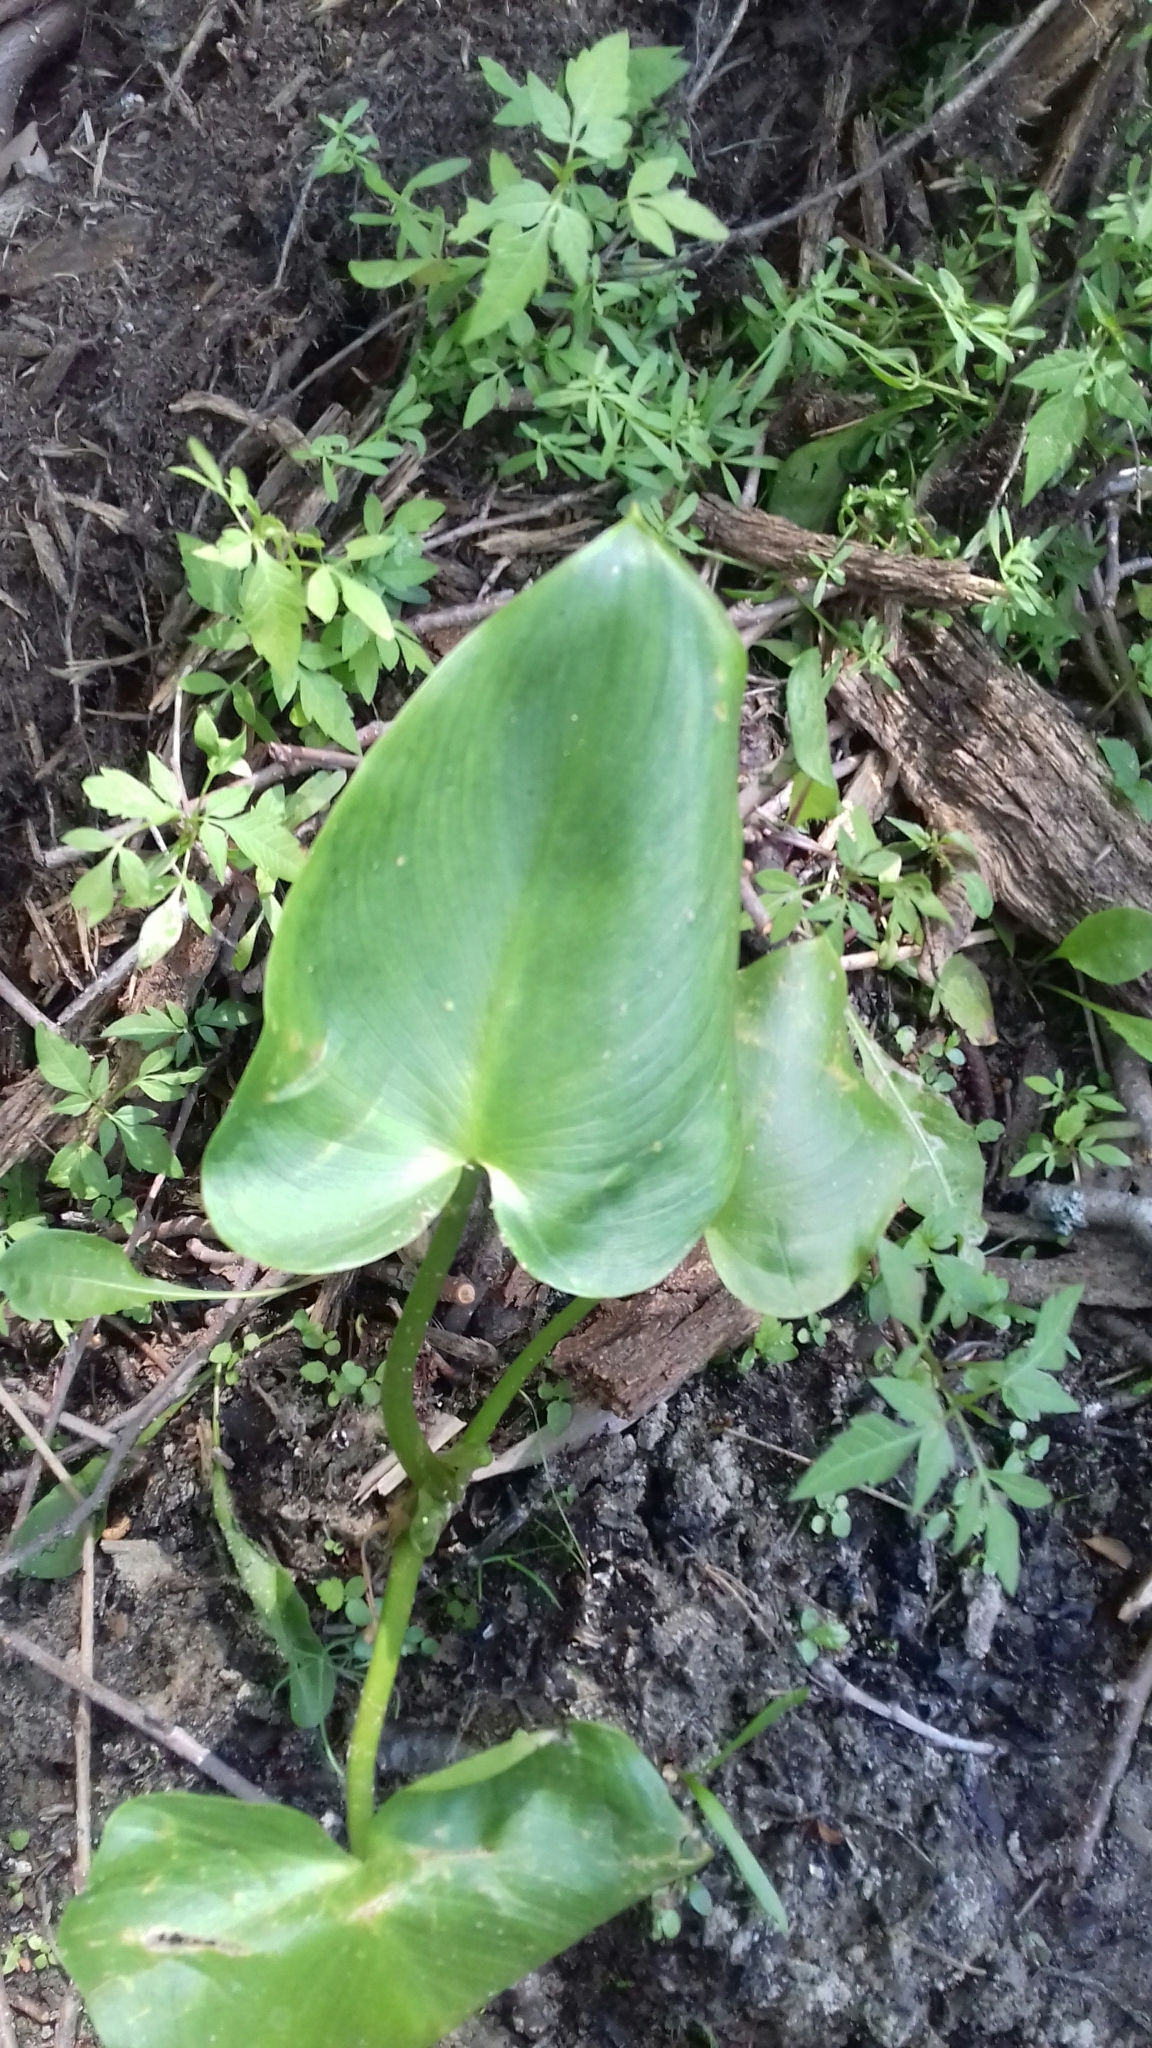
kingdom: Plantae
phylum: Tracheophyta
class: Liliopsida
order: Alismatales
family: Araceae
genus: Calla
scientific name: Calla palustris
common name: Bog arum
